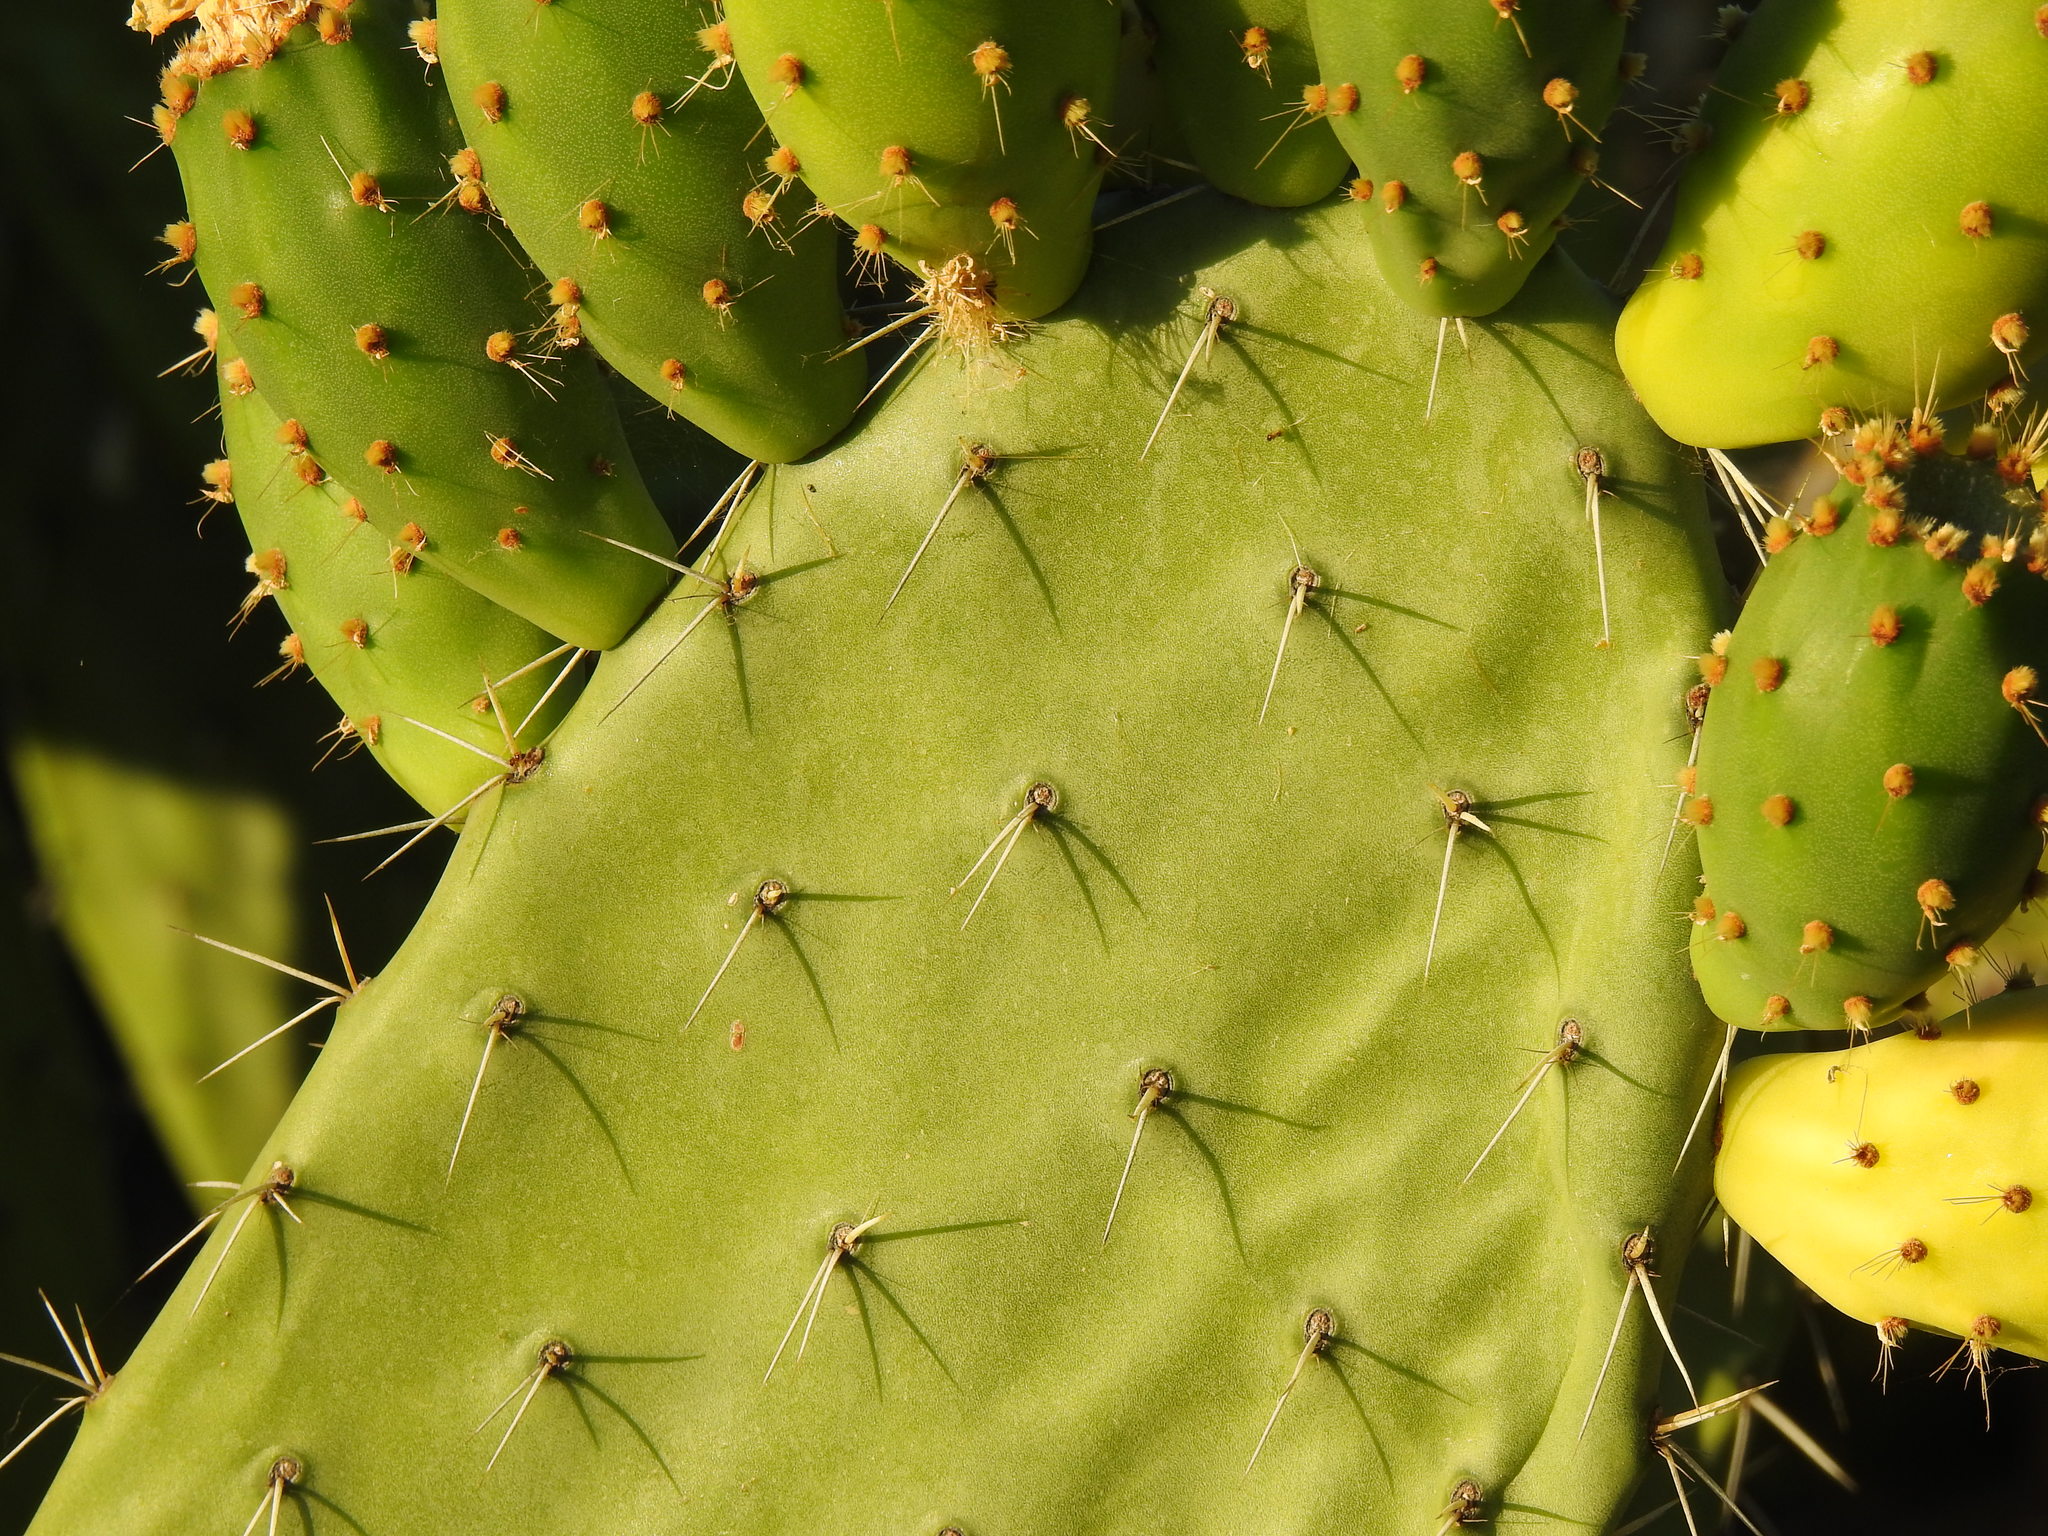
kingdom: Plantae
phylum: Tracheophyta
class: Magnoliopsida
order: Caryophyllales
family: Cactaceae
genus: Opuntia
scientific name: Opuntia ficus-indica
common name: Barbary fig
